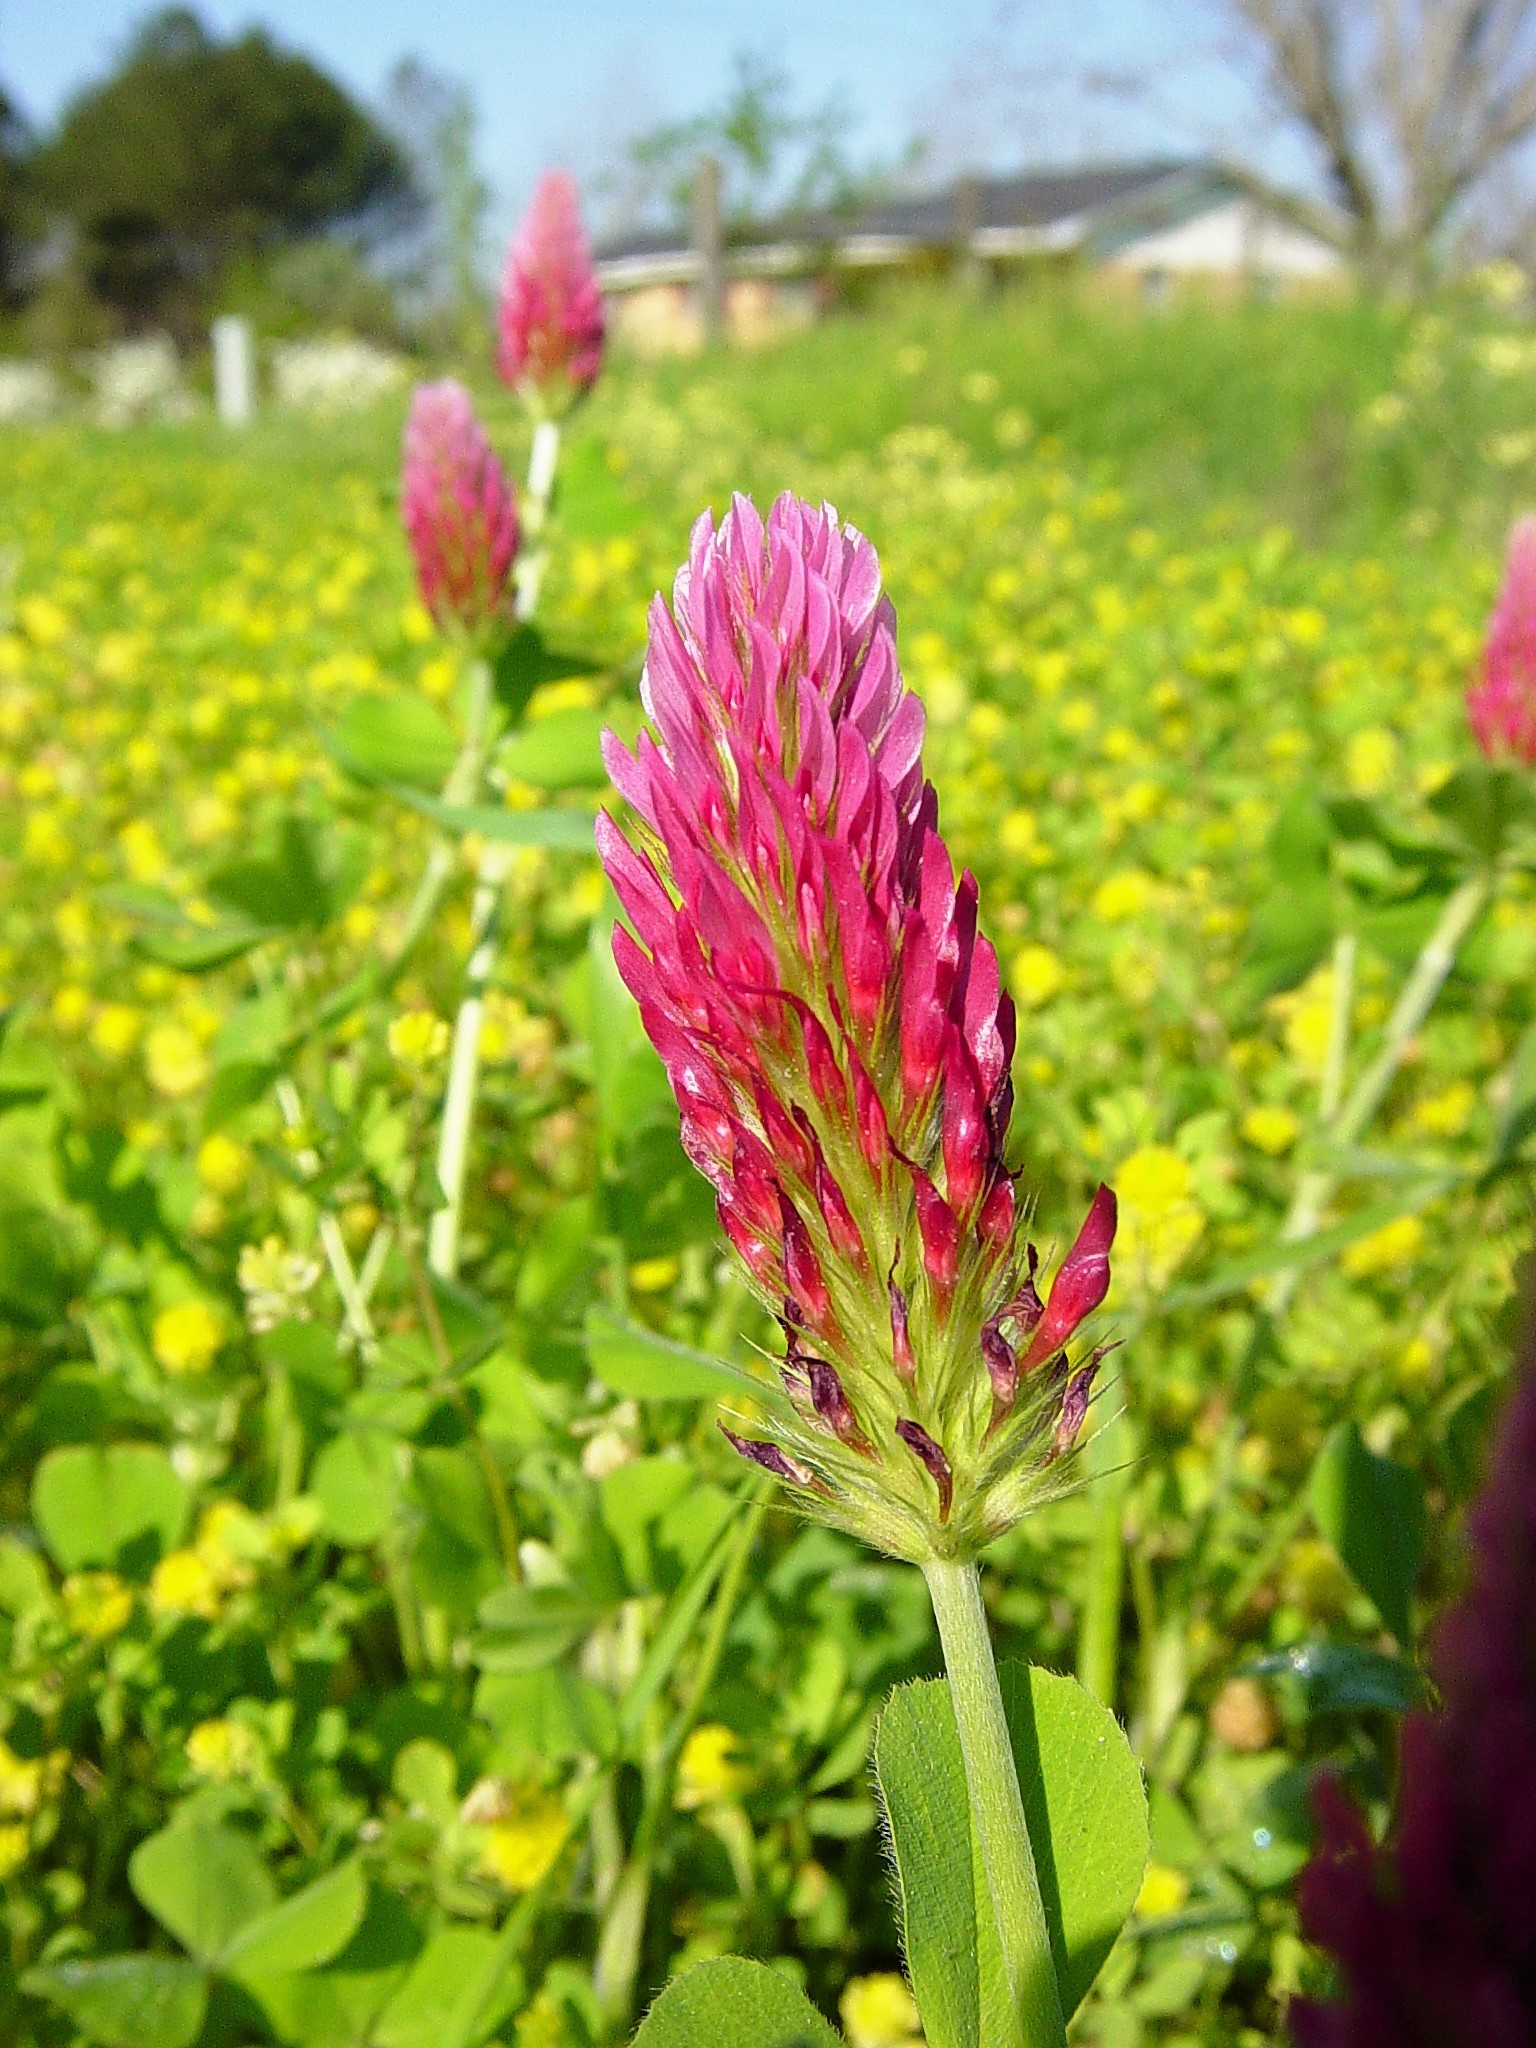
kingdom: Plantae
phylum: Tracheophyta
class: Magnoliopsida
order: Fabales
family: Fabaceae
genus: Trifolium
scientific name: Trifolium incarnatum
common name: Crimson clover
